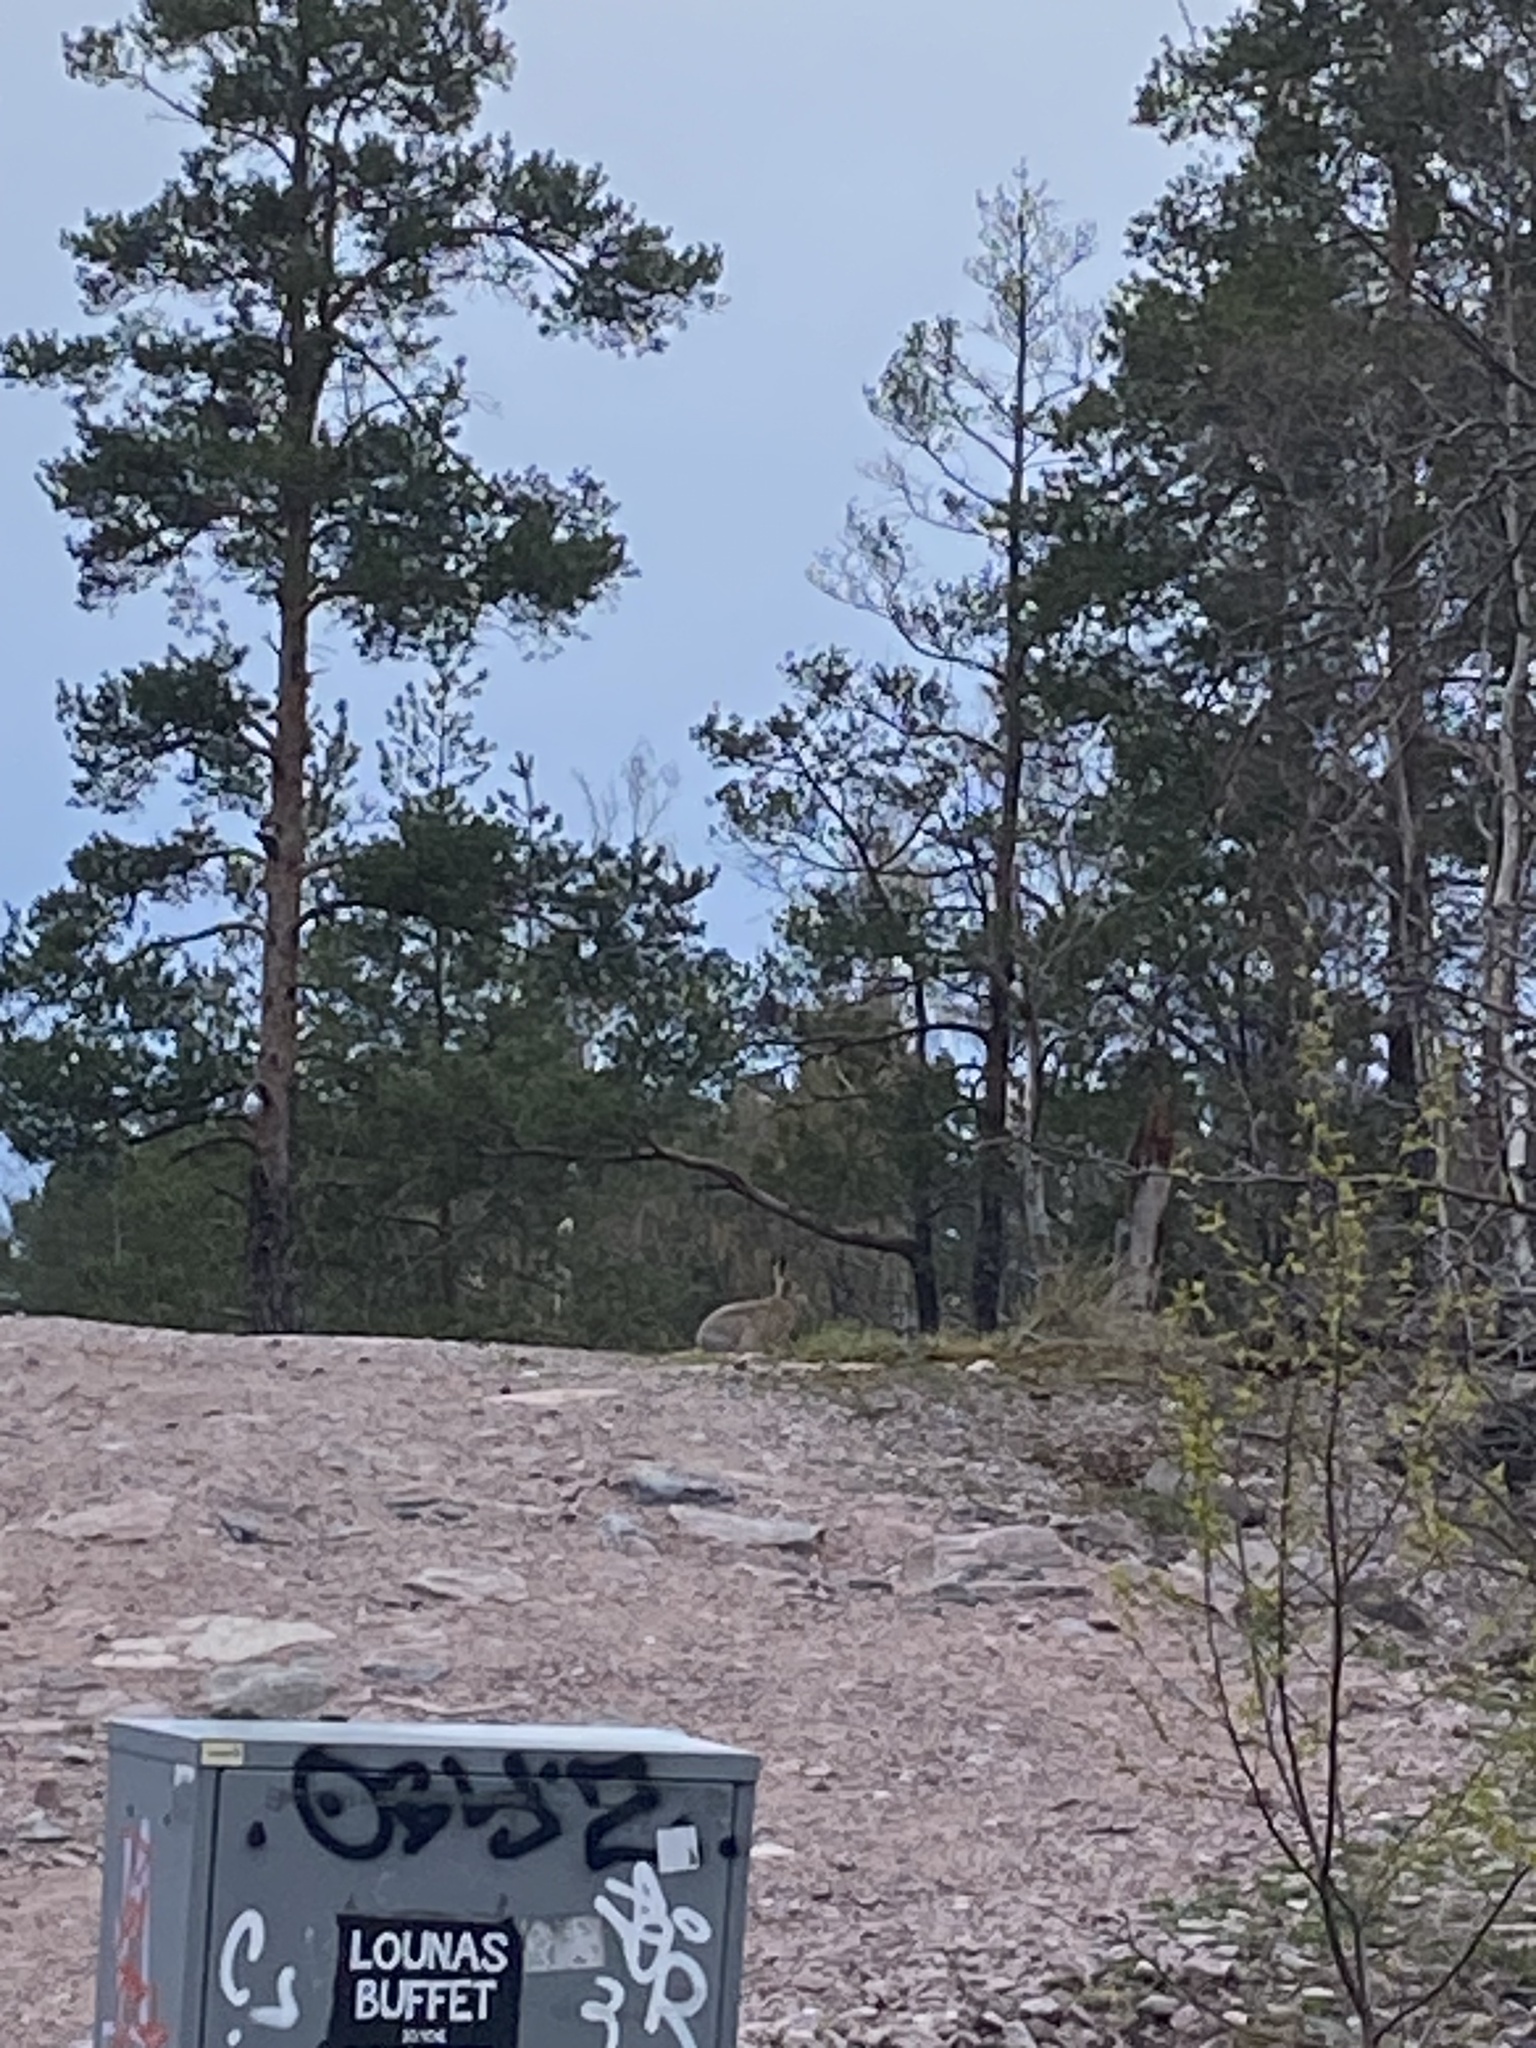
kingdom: Animalia
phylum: Chordata
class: Mammalia
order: Lagomorpha
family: Leporidae
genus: Lepus
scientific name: Lepus europaeus
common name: European hare
